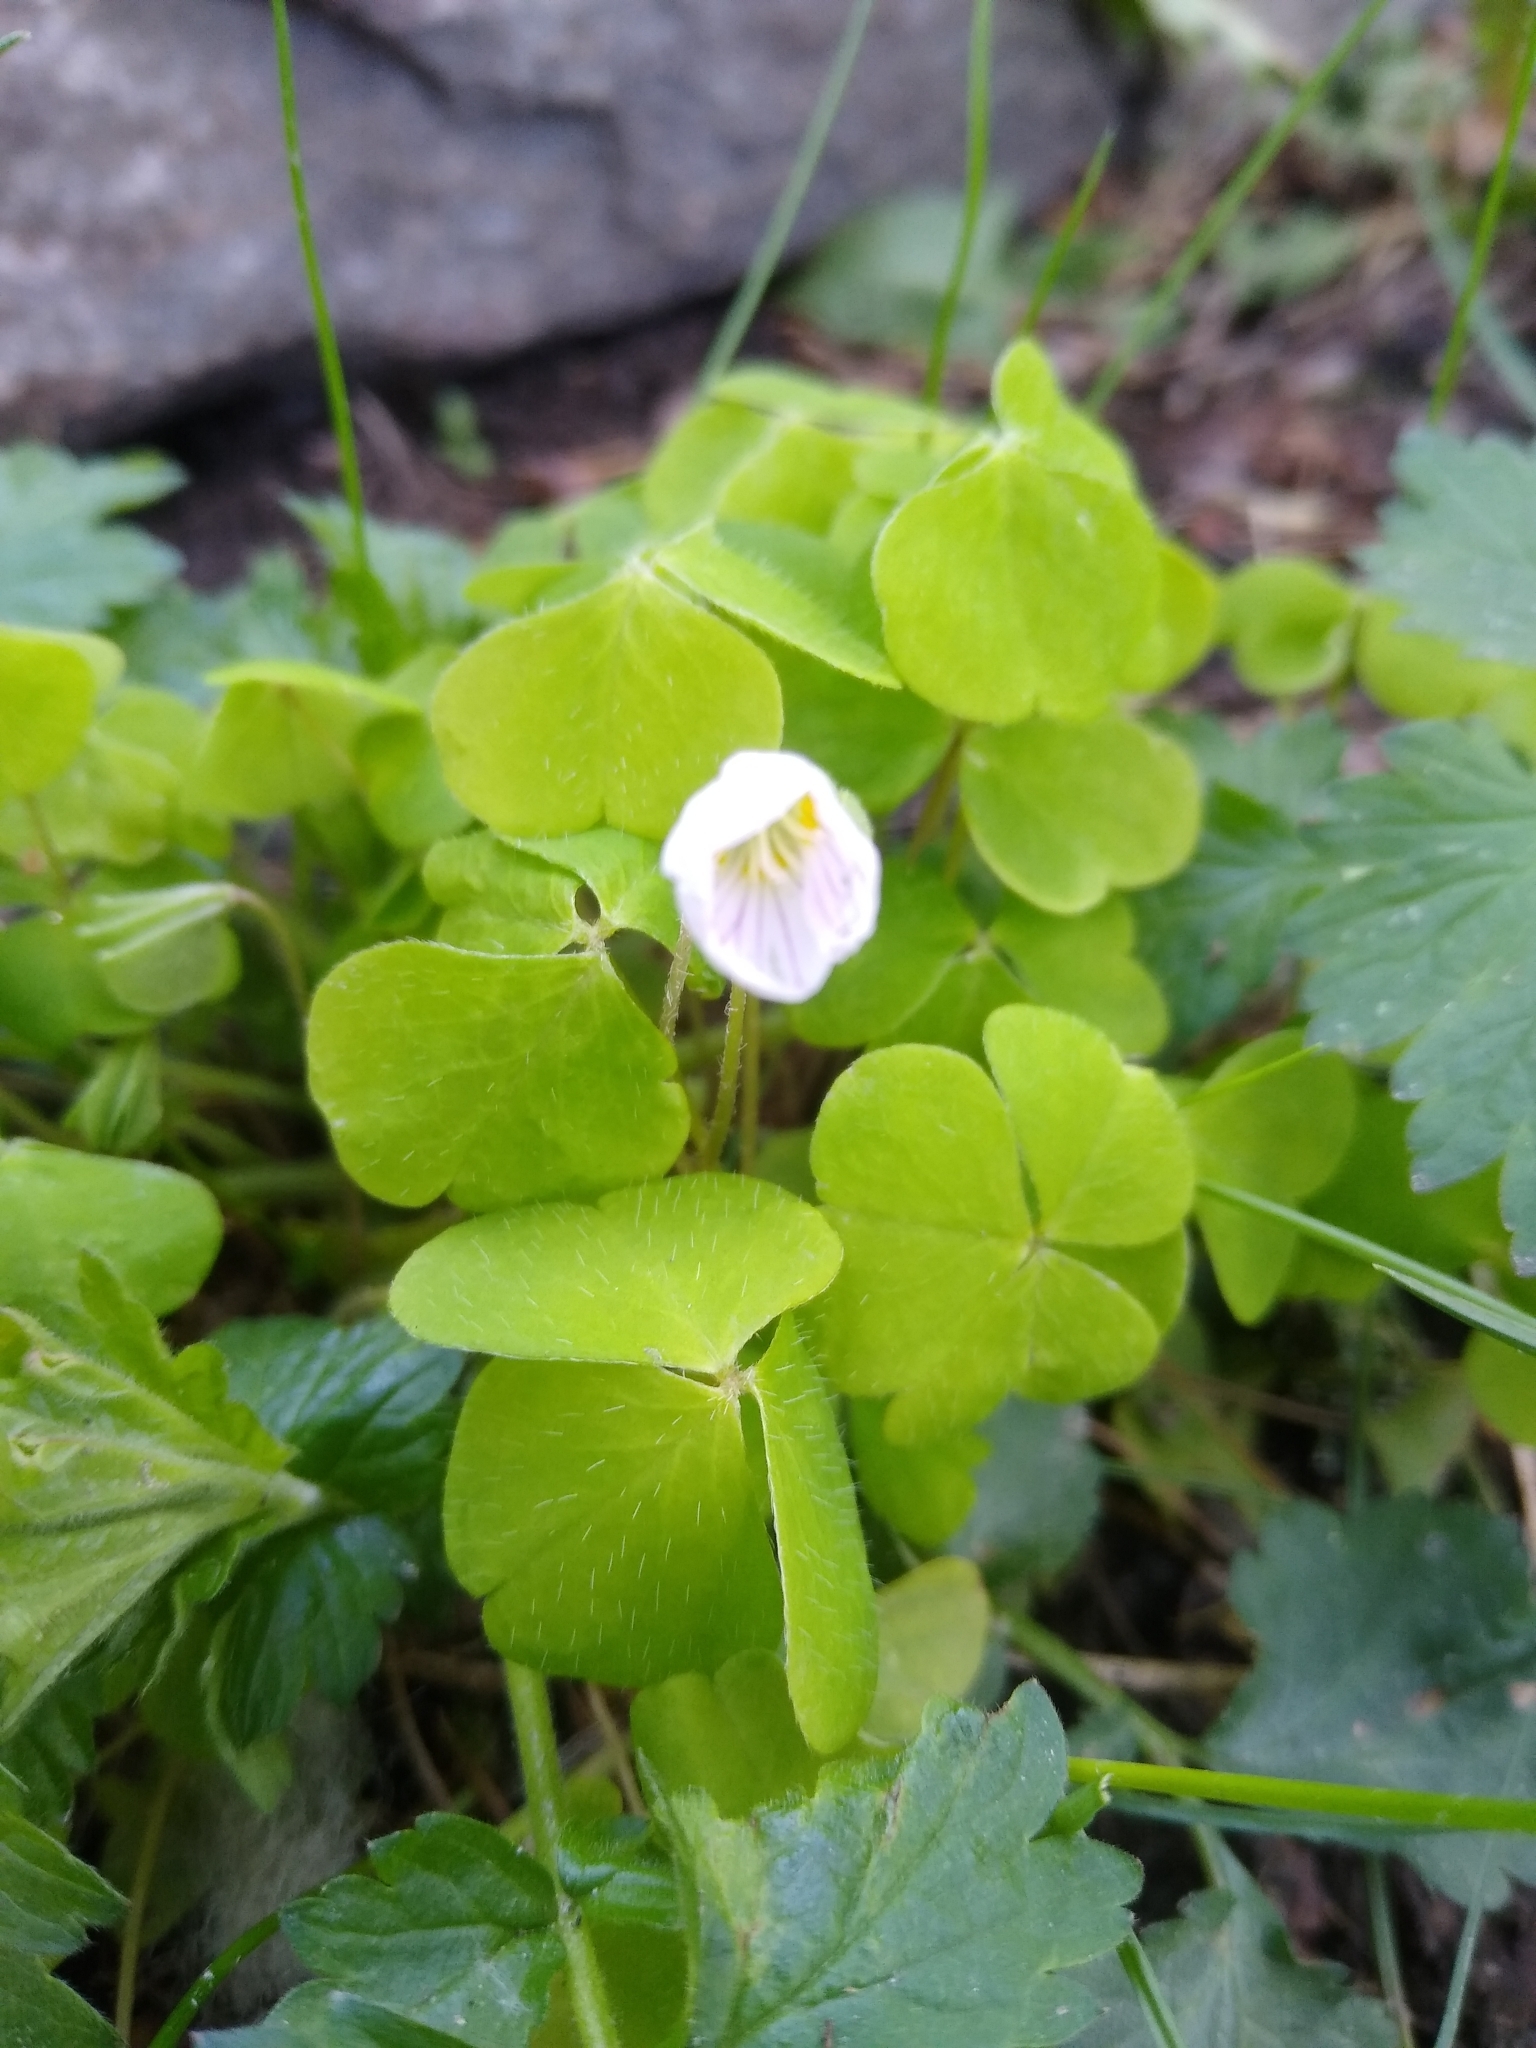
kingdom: Plantae
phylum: Tracheophyta
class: Magnoliopsida
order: Oxalidales
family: Oxalidaceae
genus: Oxalis
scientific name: Oxalis acetosella
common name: Wood-sorrel
